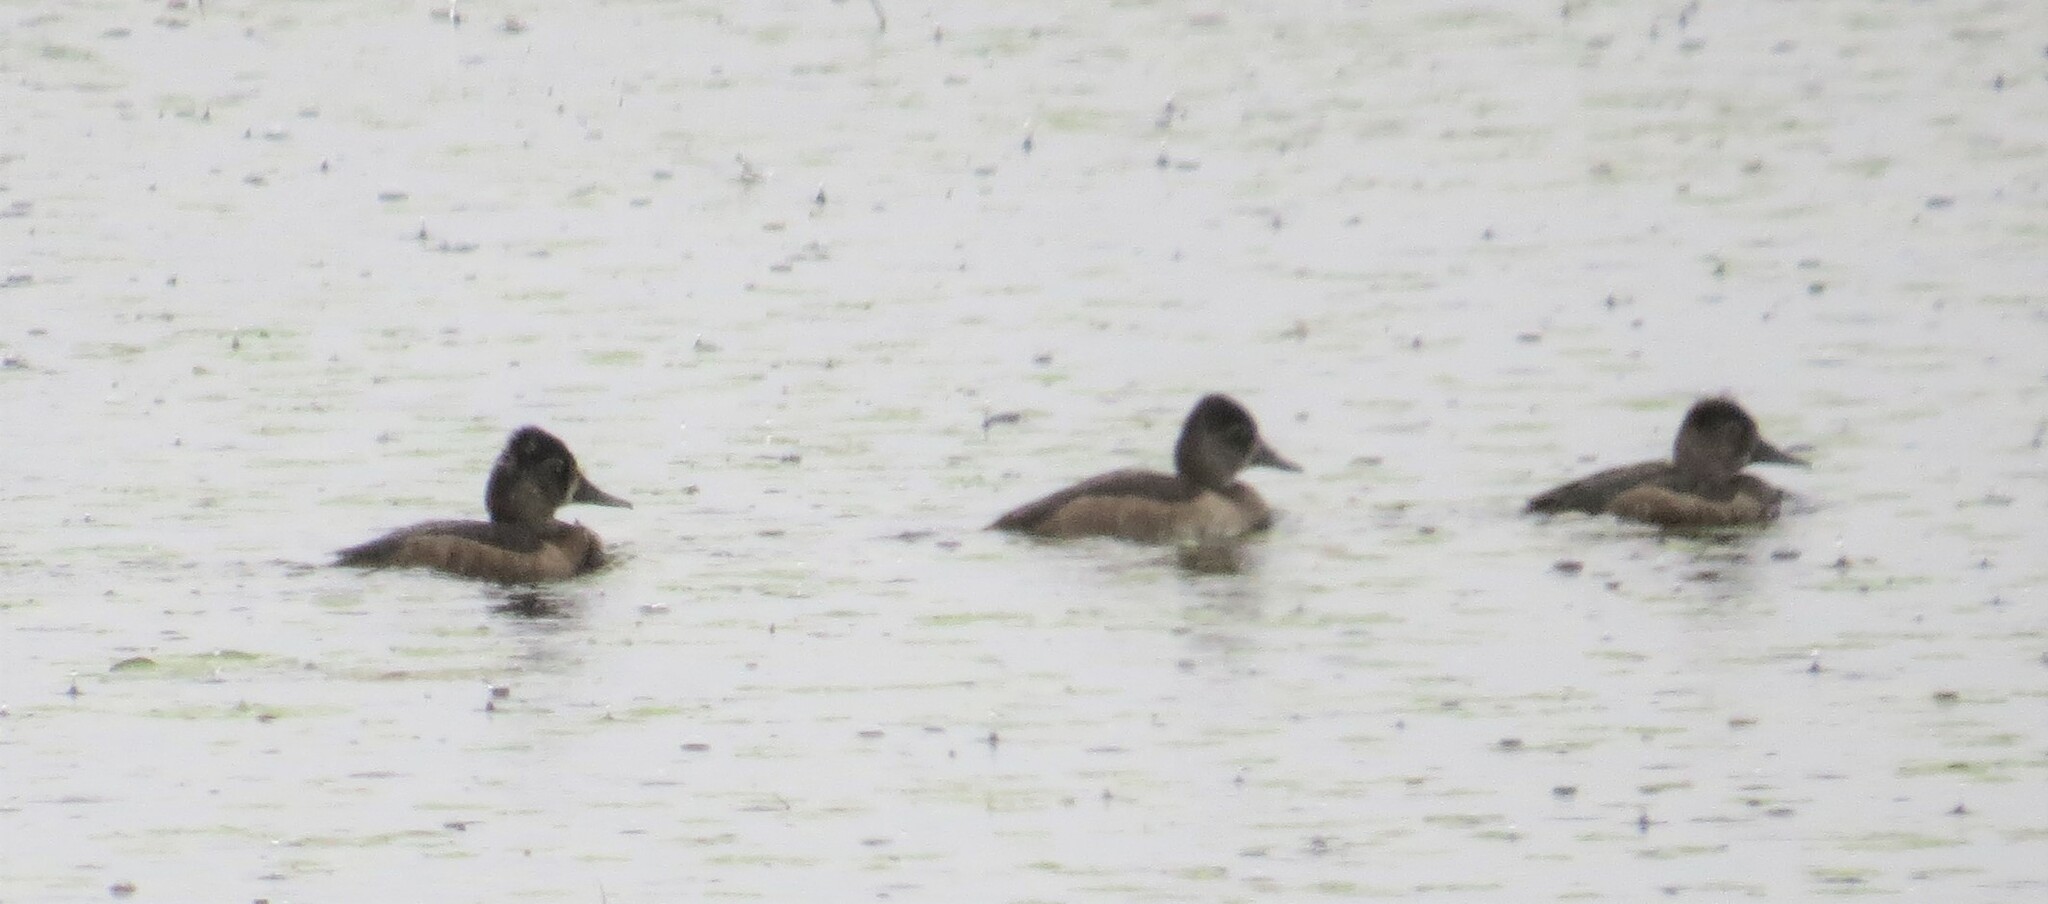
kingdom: Animalia
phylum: Chordata
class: Aves
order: Anseriformes
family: Anatidae
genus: Aythya
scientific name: Aythya collaris
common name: Ring-necked duck
